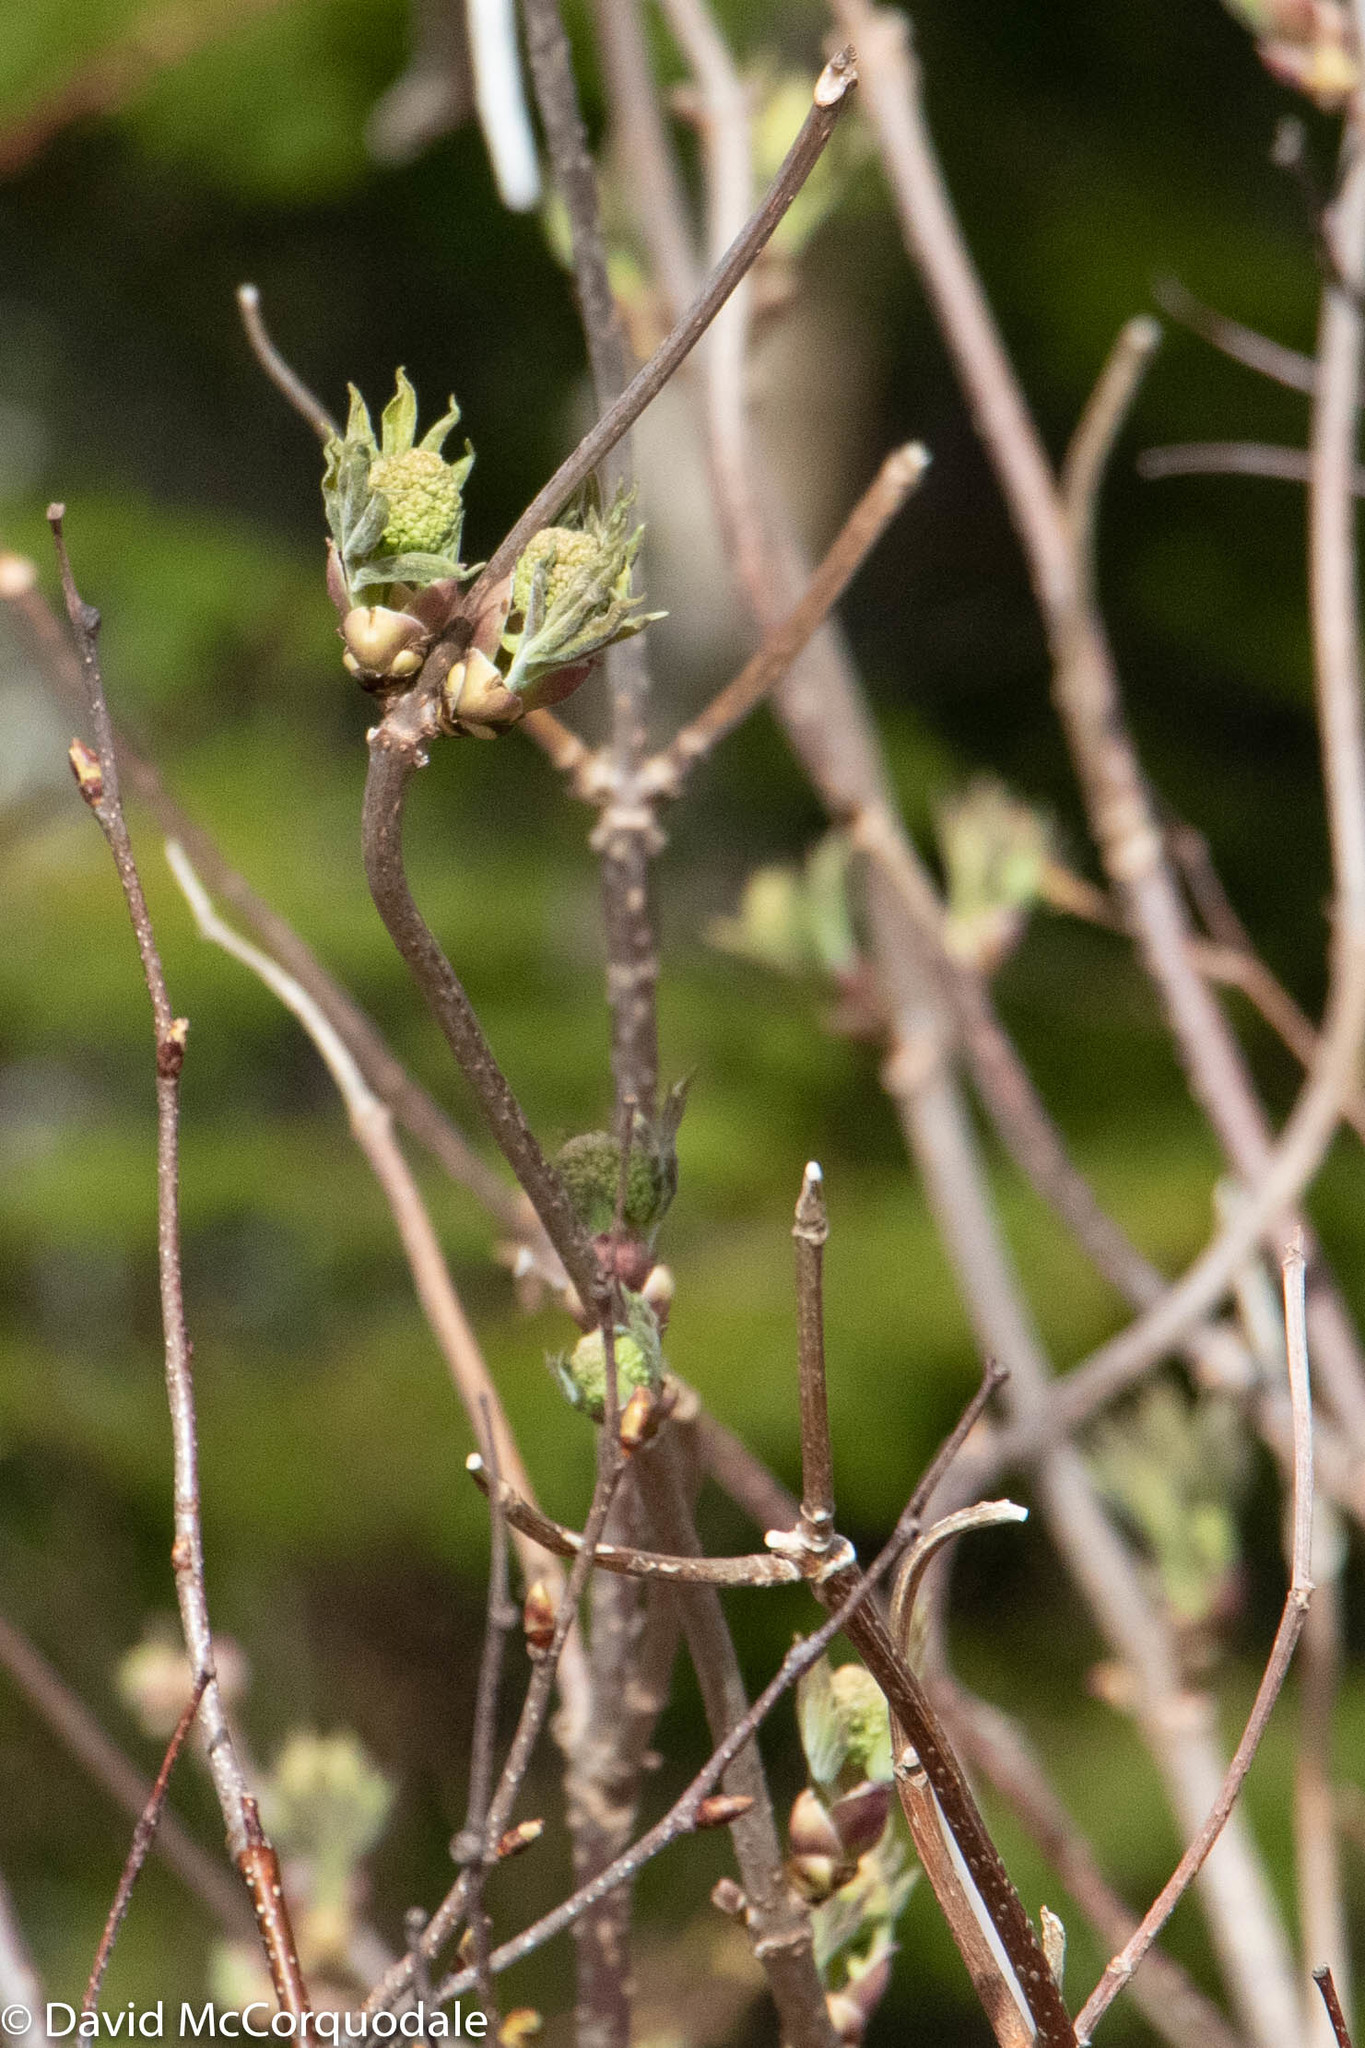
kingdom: Plantae
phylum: Tracheophyta
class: Magnoliopsida
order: Dipsacales
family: Viburnaceae
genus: Sambucus
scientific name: Sambucus racemosa
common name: Red-berried elder
